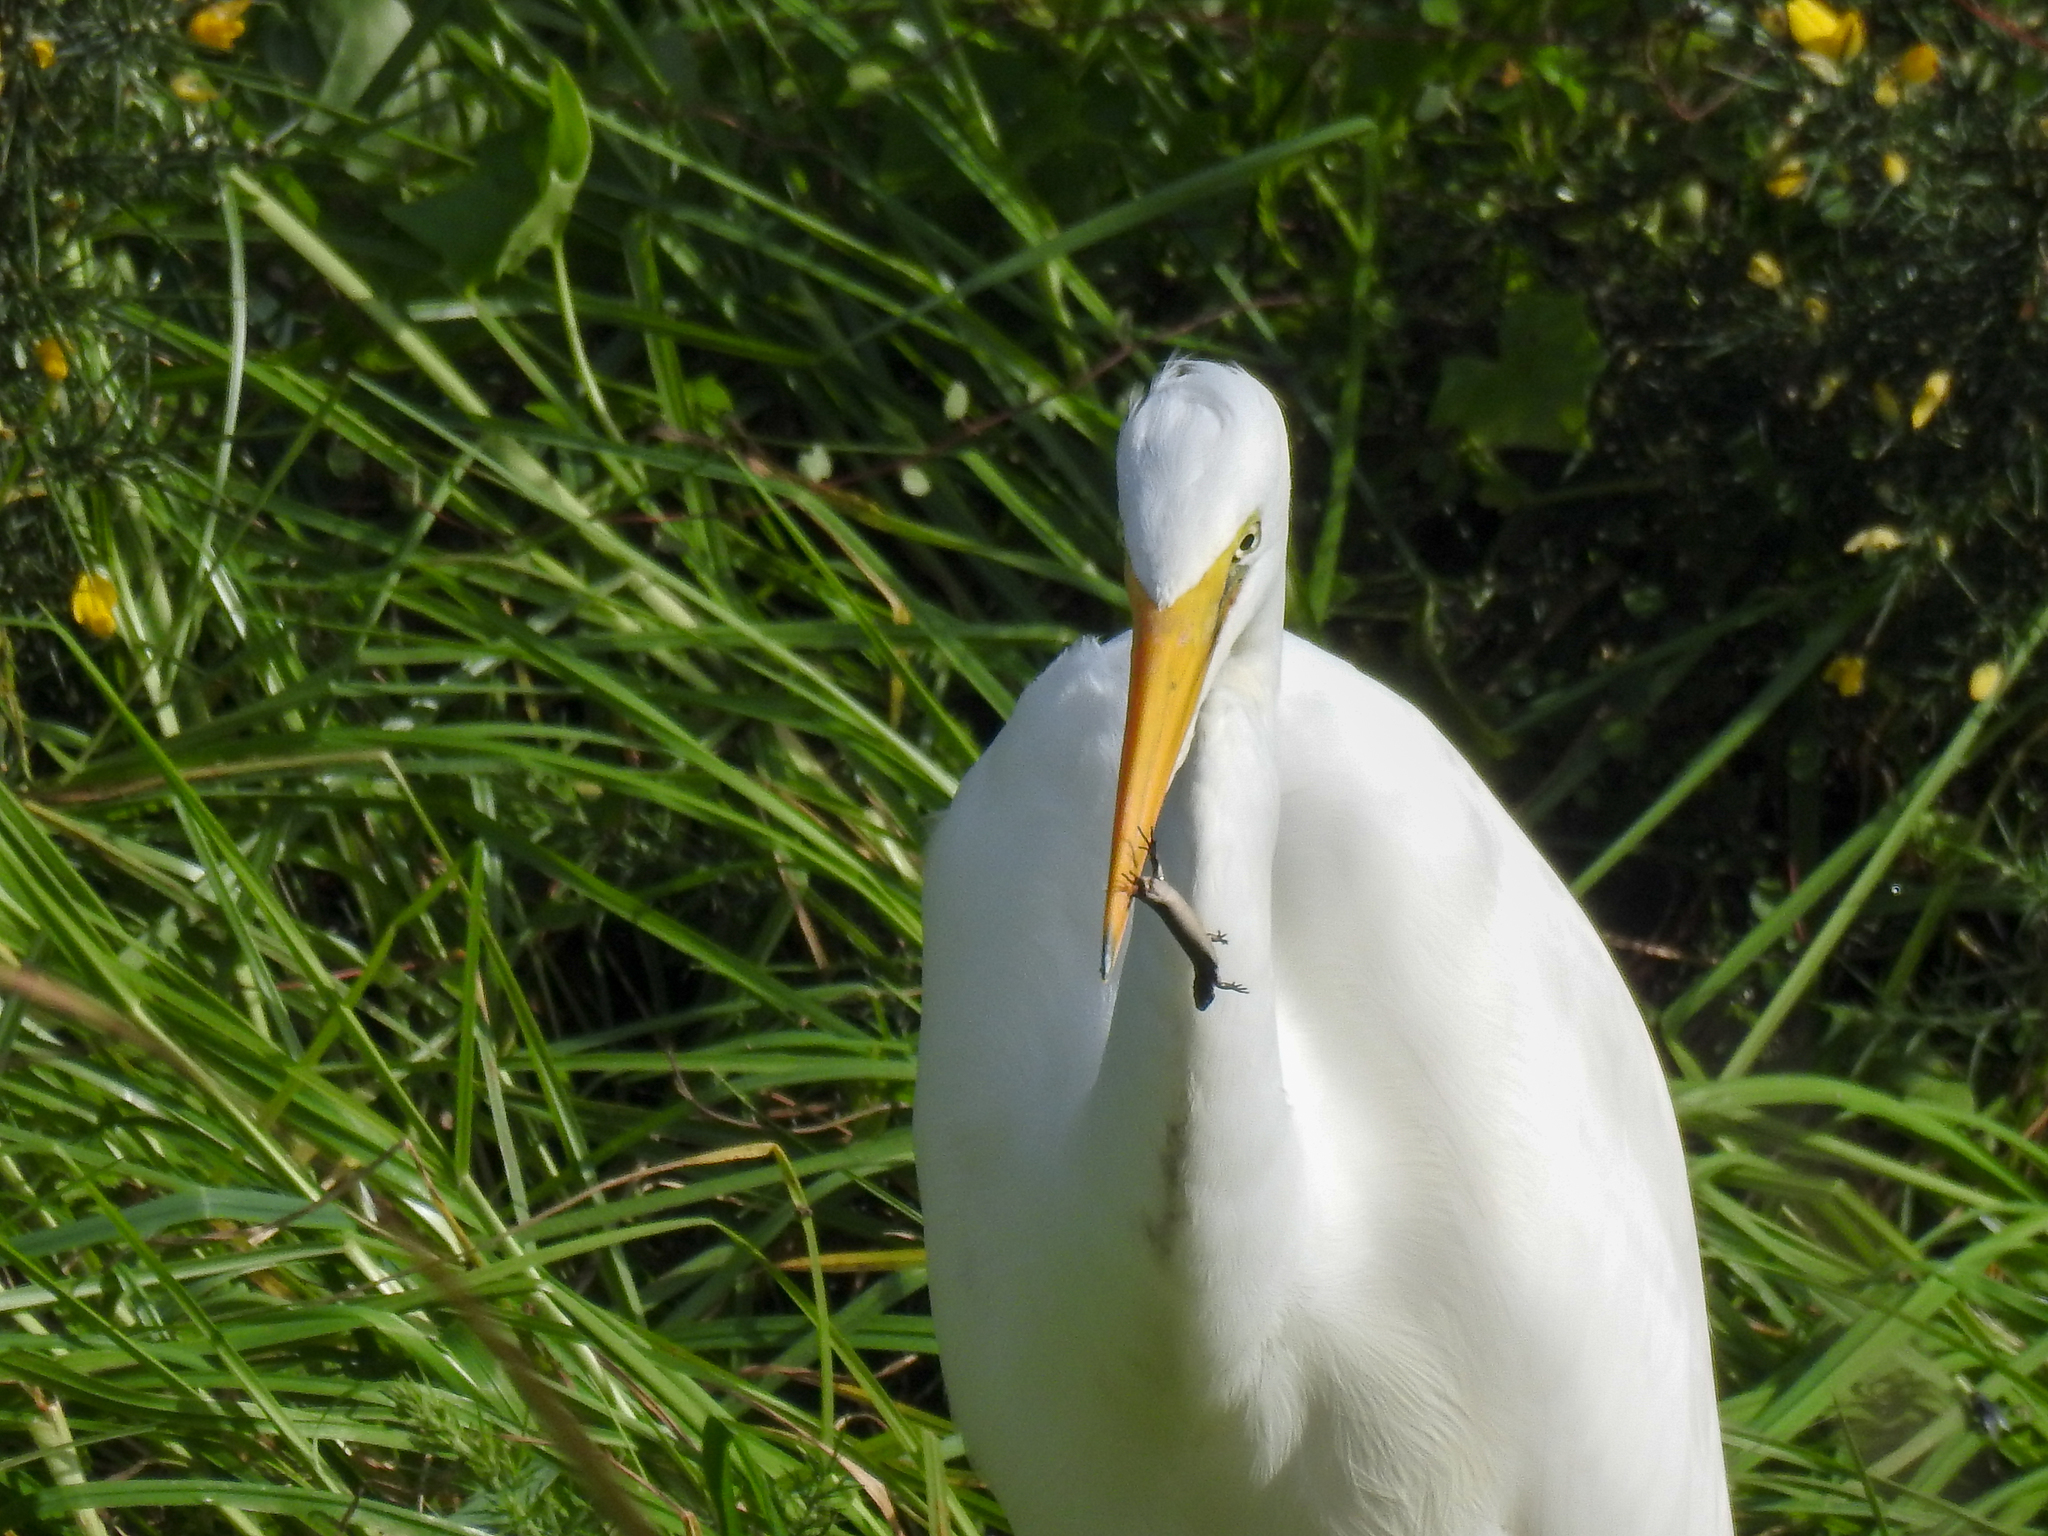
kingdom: Animalia
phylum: Chordata
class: Squamata
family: Scincidae
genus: Lampropholis
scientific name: Lampropholis delicata
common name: Plague skink
